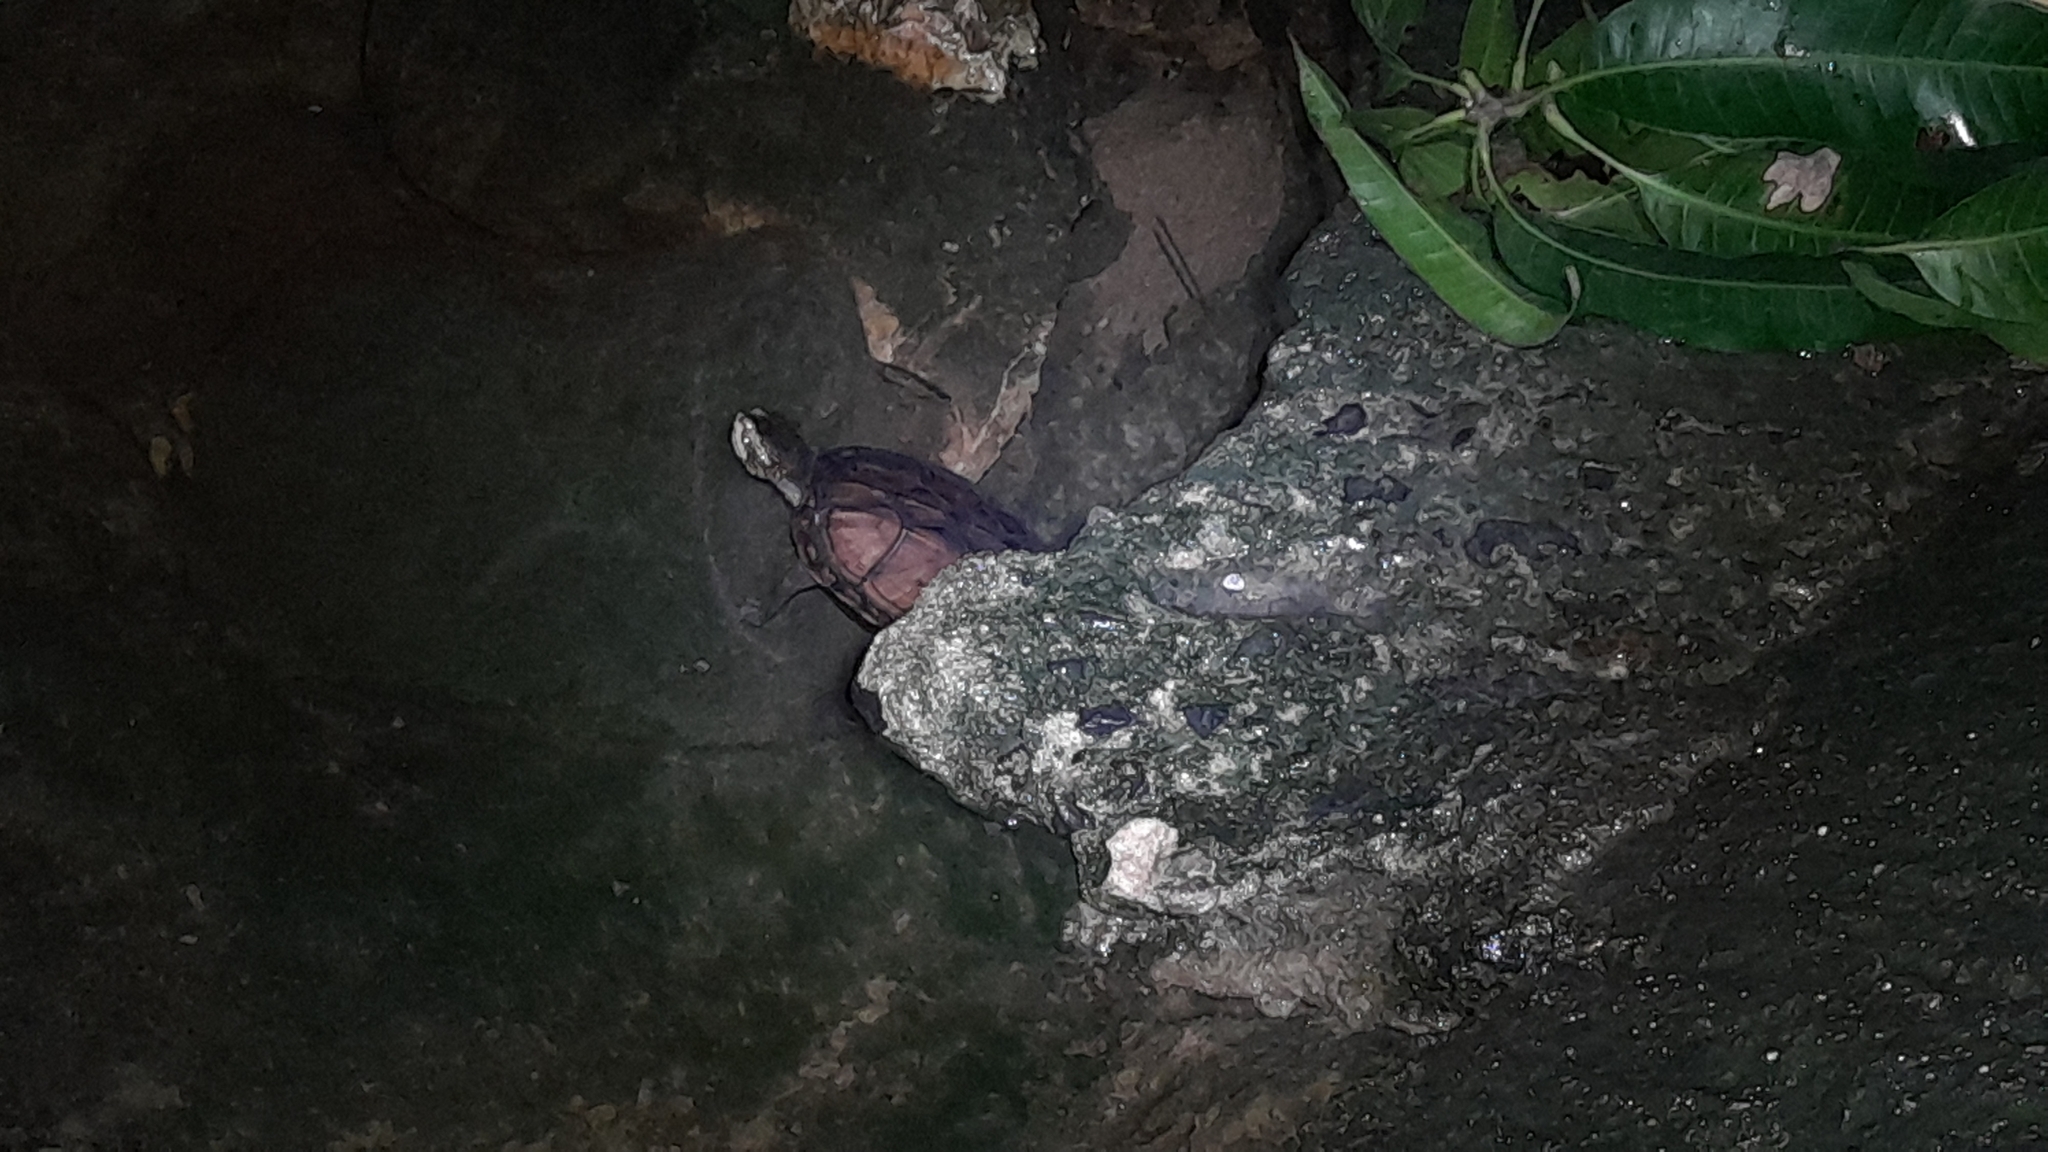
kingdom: Animalia
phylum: Chordata
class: Testudines
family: Kinosternidae
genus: Kinosternon
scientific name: Kinosternon scorpioides
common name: Scorpion mud turtle
